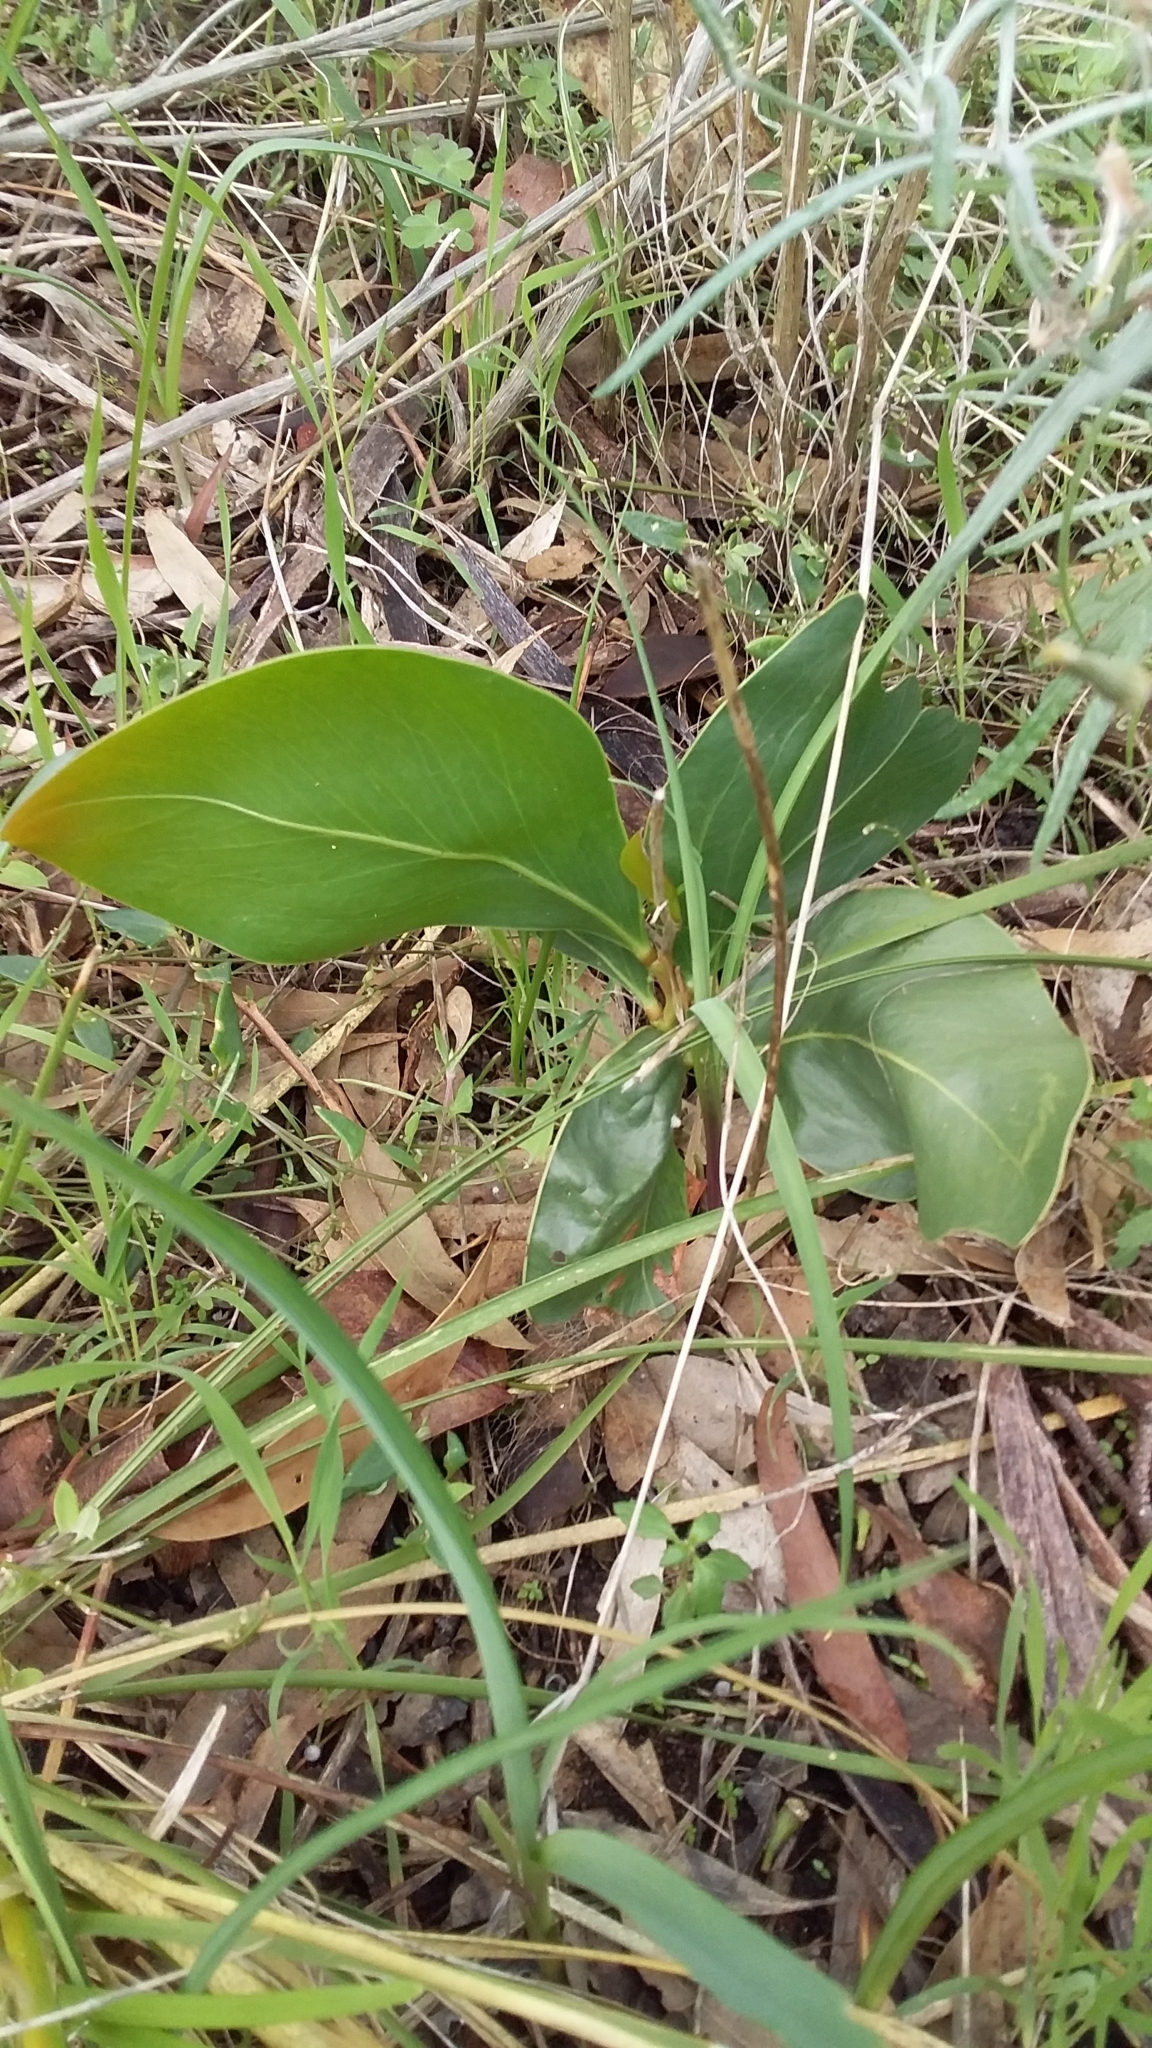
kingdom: Plantae
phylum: Tracheophyta
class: Magnoliopsida
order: Fabales
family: Fabaceae
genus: Acacia
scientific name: Acacia pycnantha
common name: Golden wattle
